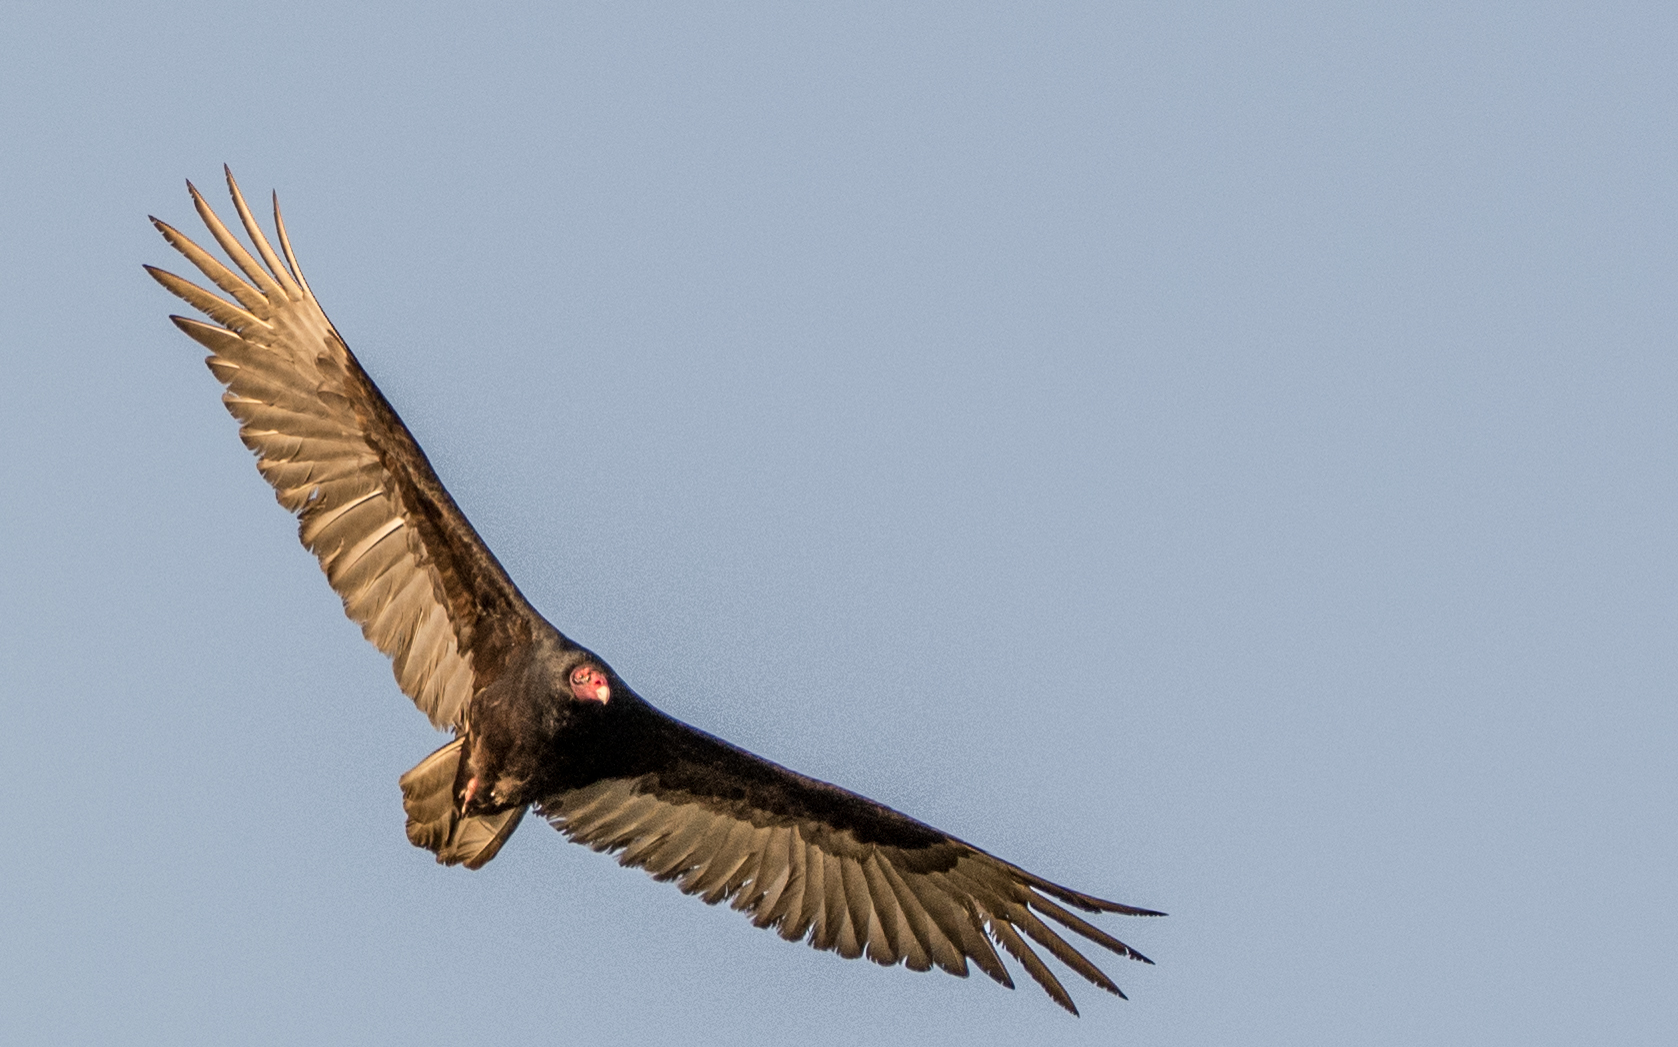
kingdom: Animalia
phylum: Chordata
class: Aves
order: Accipitriformes
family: Cathartidae
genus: Cathartes
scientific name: Cathartes aura
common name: Turkey vulture
